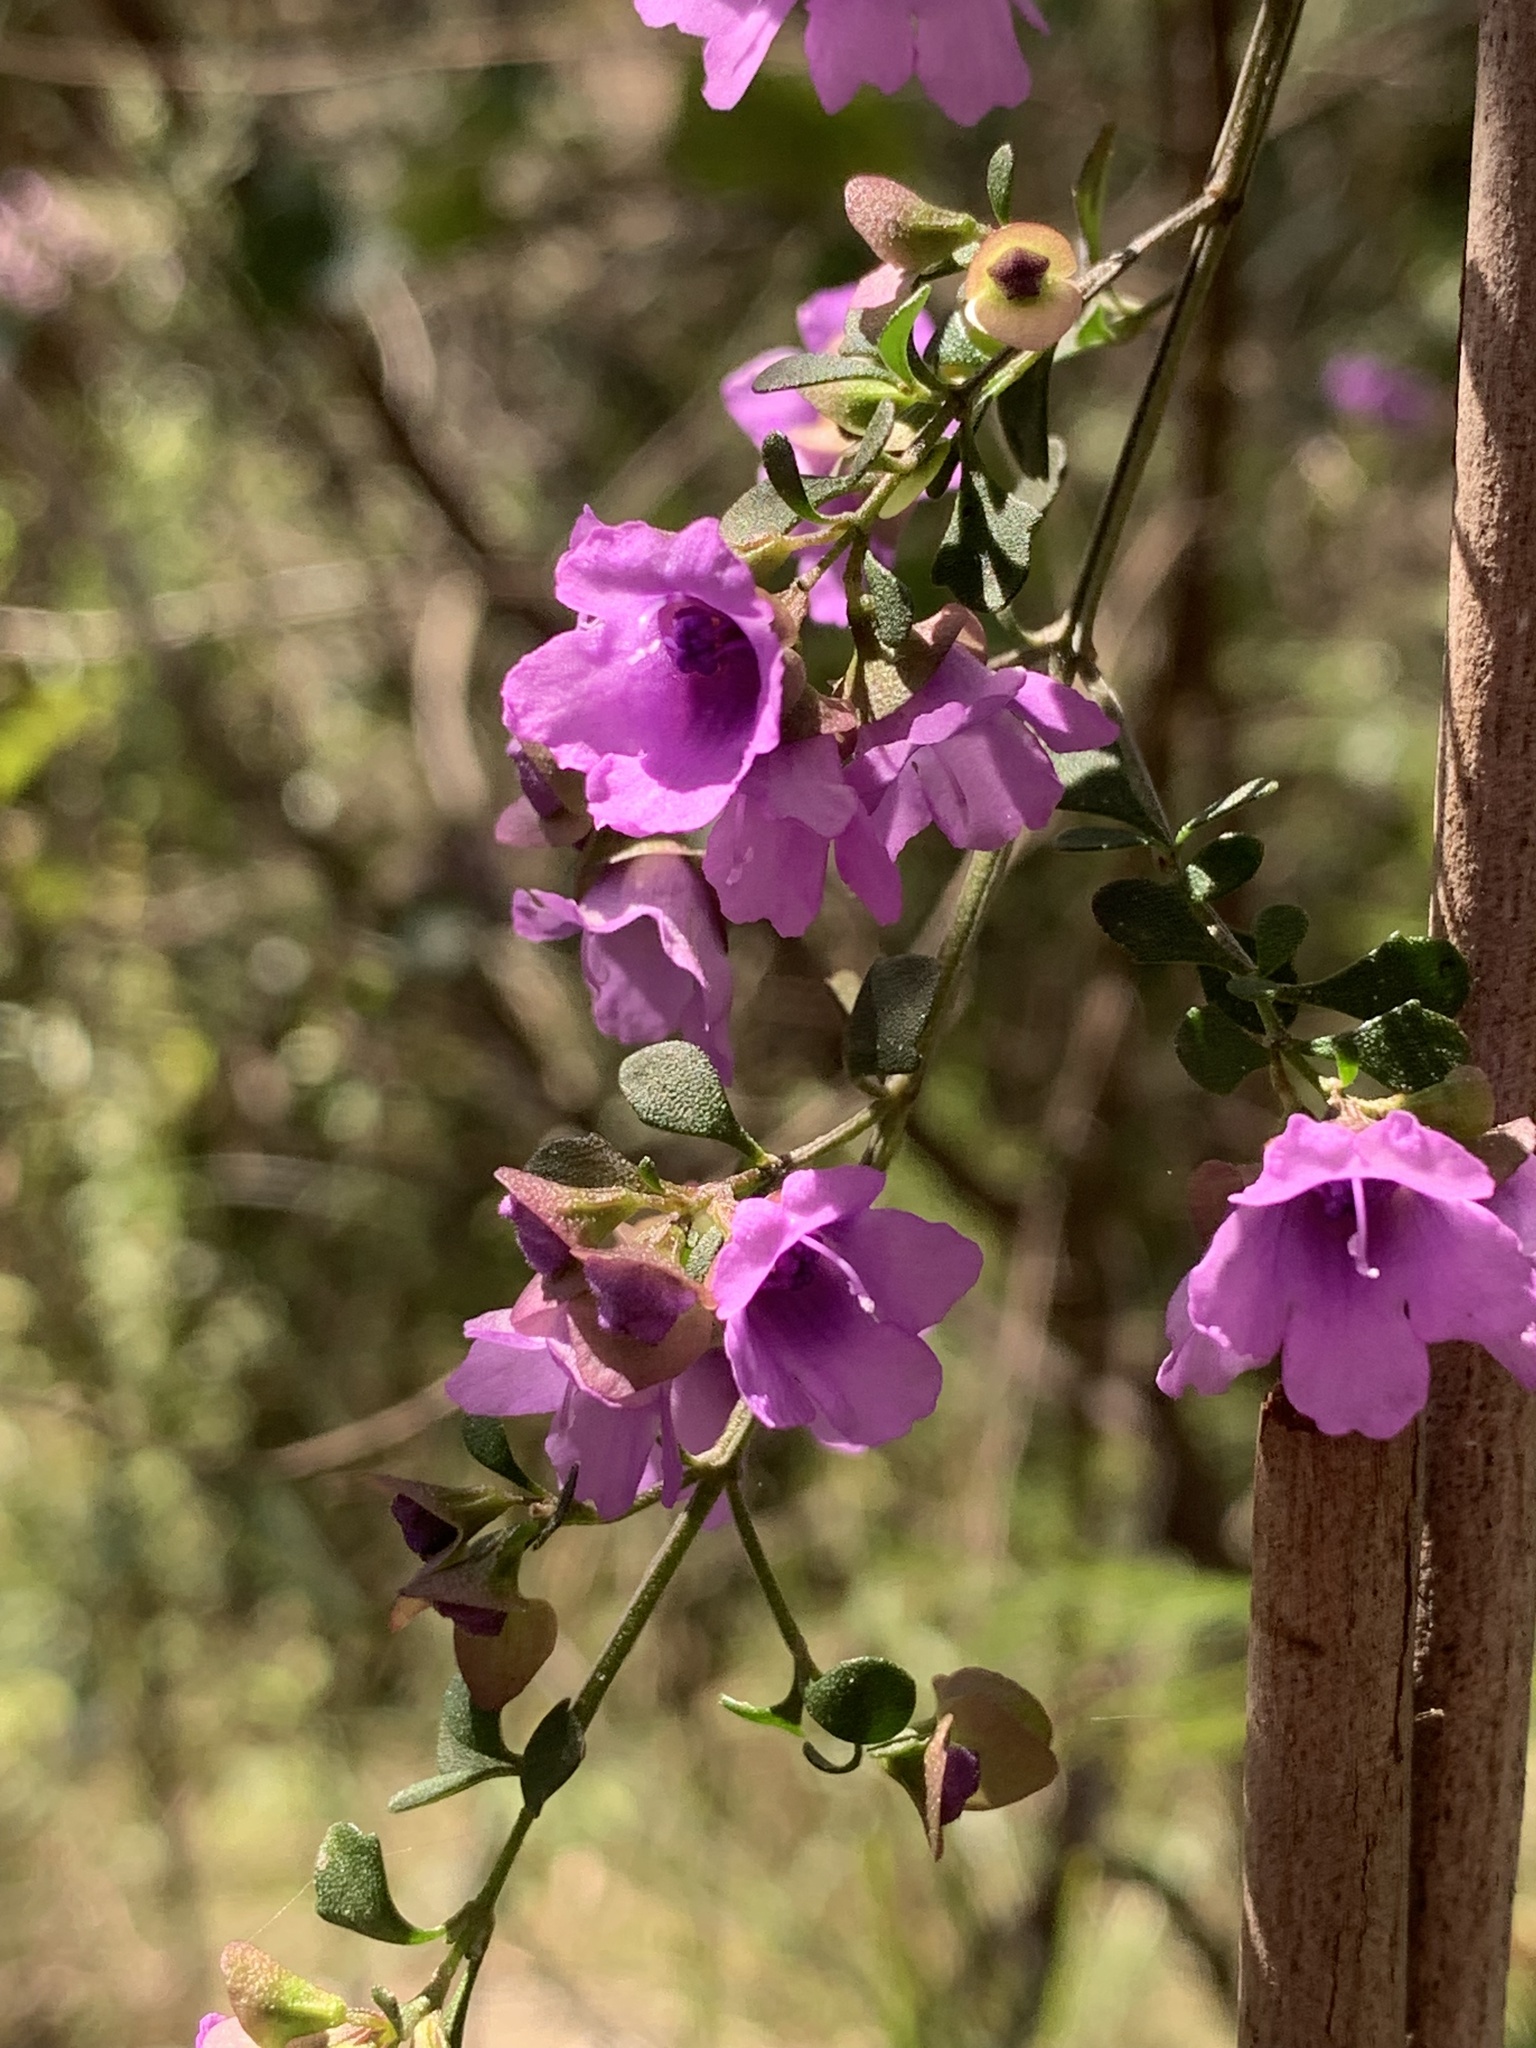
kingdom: Plantae
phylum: Tracheophyta
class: Magnoliopsida
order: Lamiales
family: Lamiaceae
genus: Prostanthera
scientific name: Prostanthera rotundifolia
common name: Round-leaf mintbush
